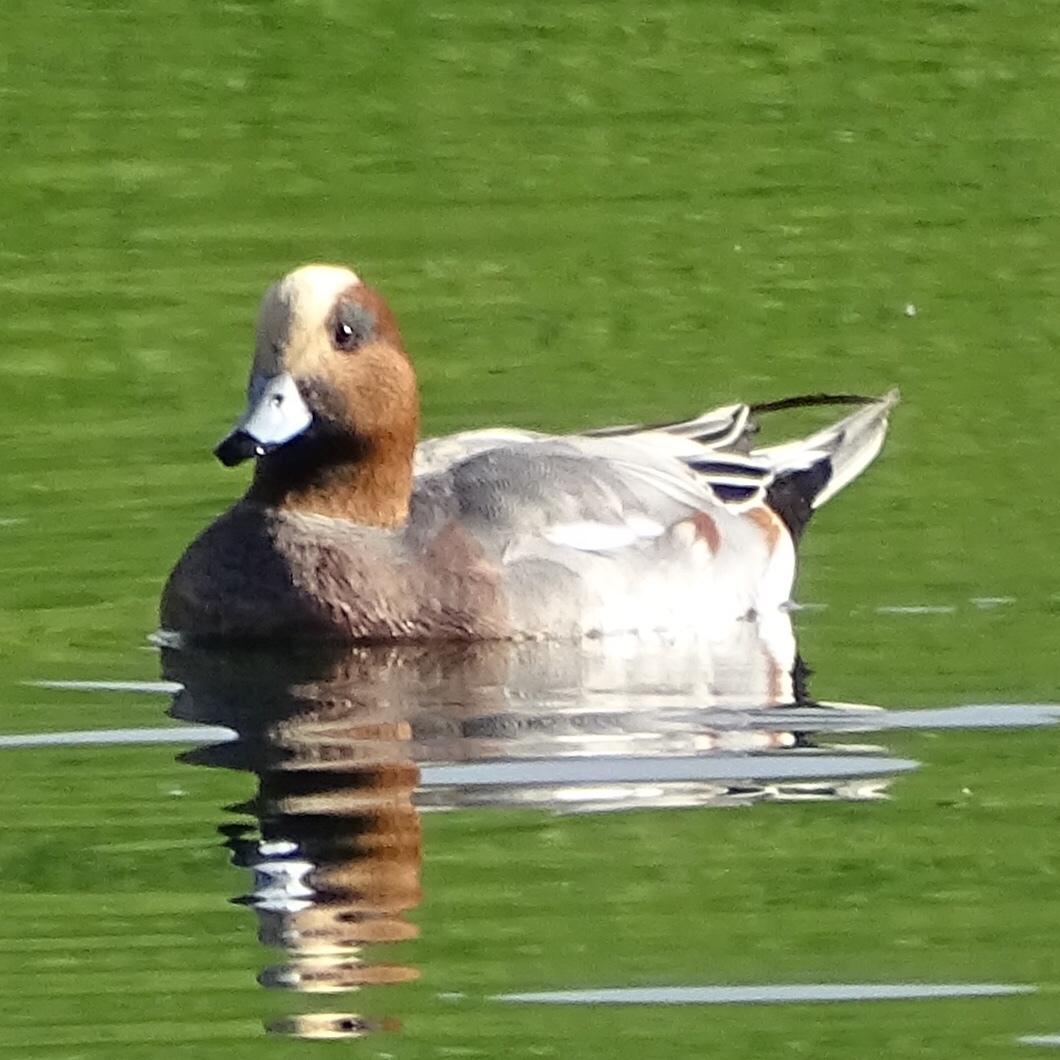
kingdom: Animalia
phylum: Chordata
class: Aves
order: Anseriformes
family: Anatidae
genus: Mareca
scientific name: Mareca penelope
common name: Eurasian wigeon
